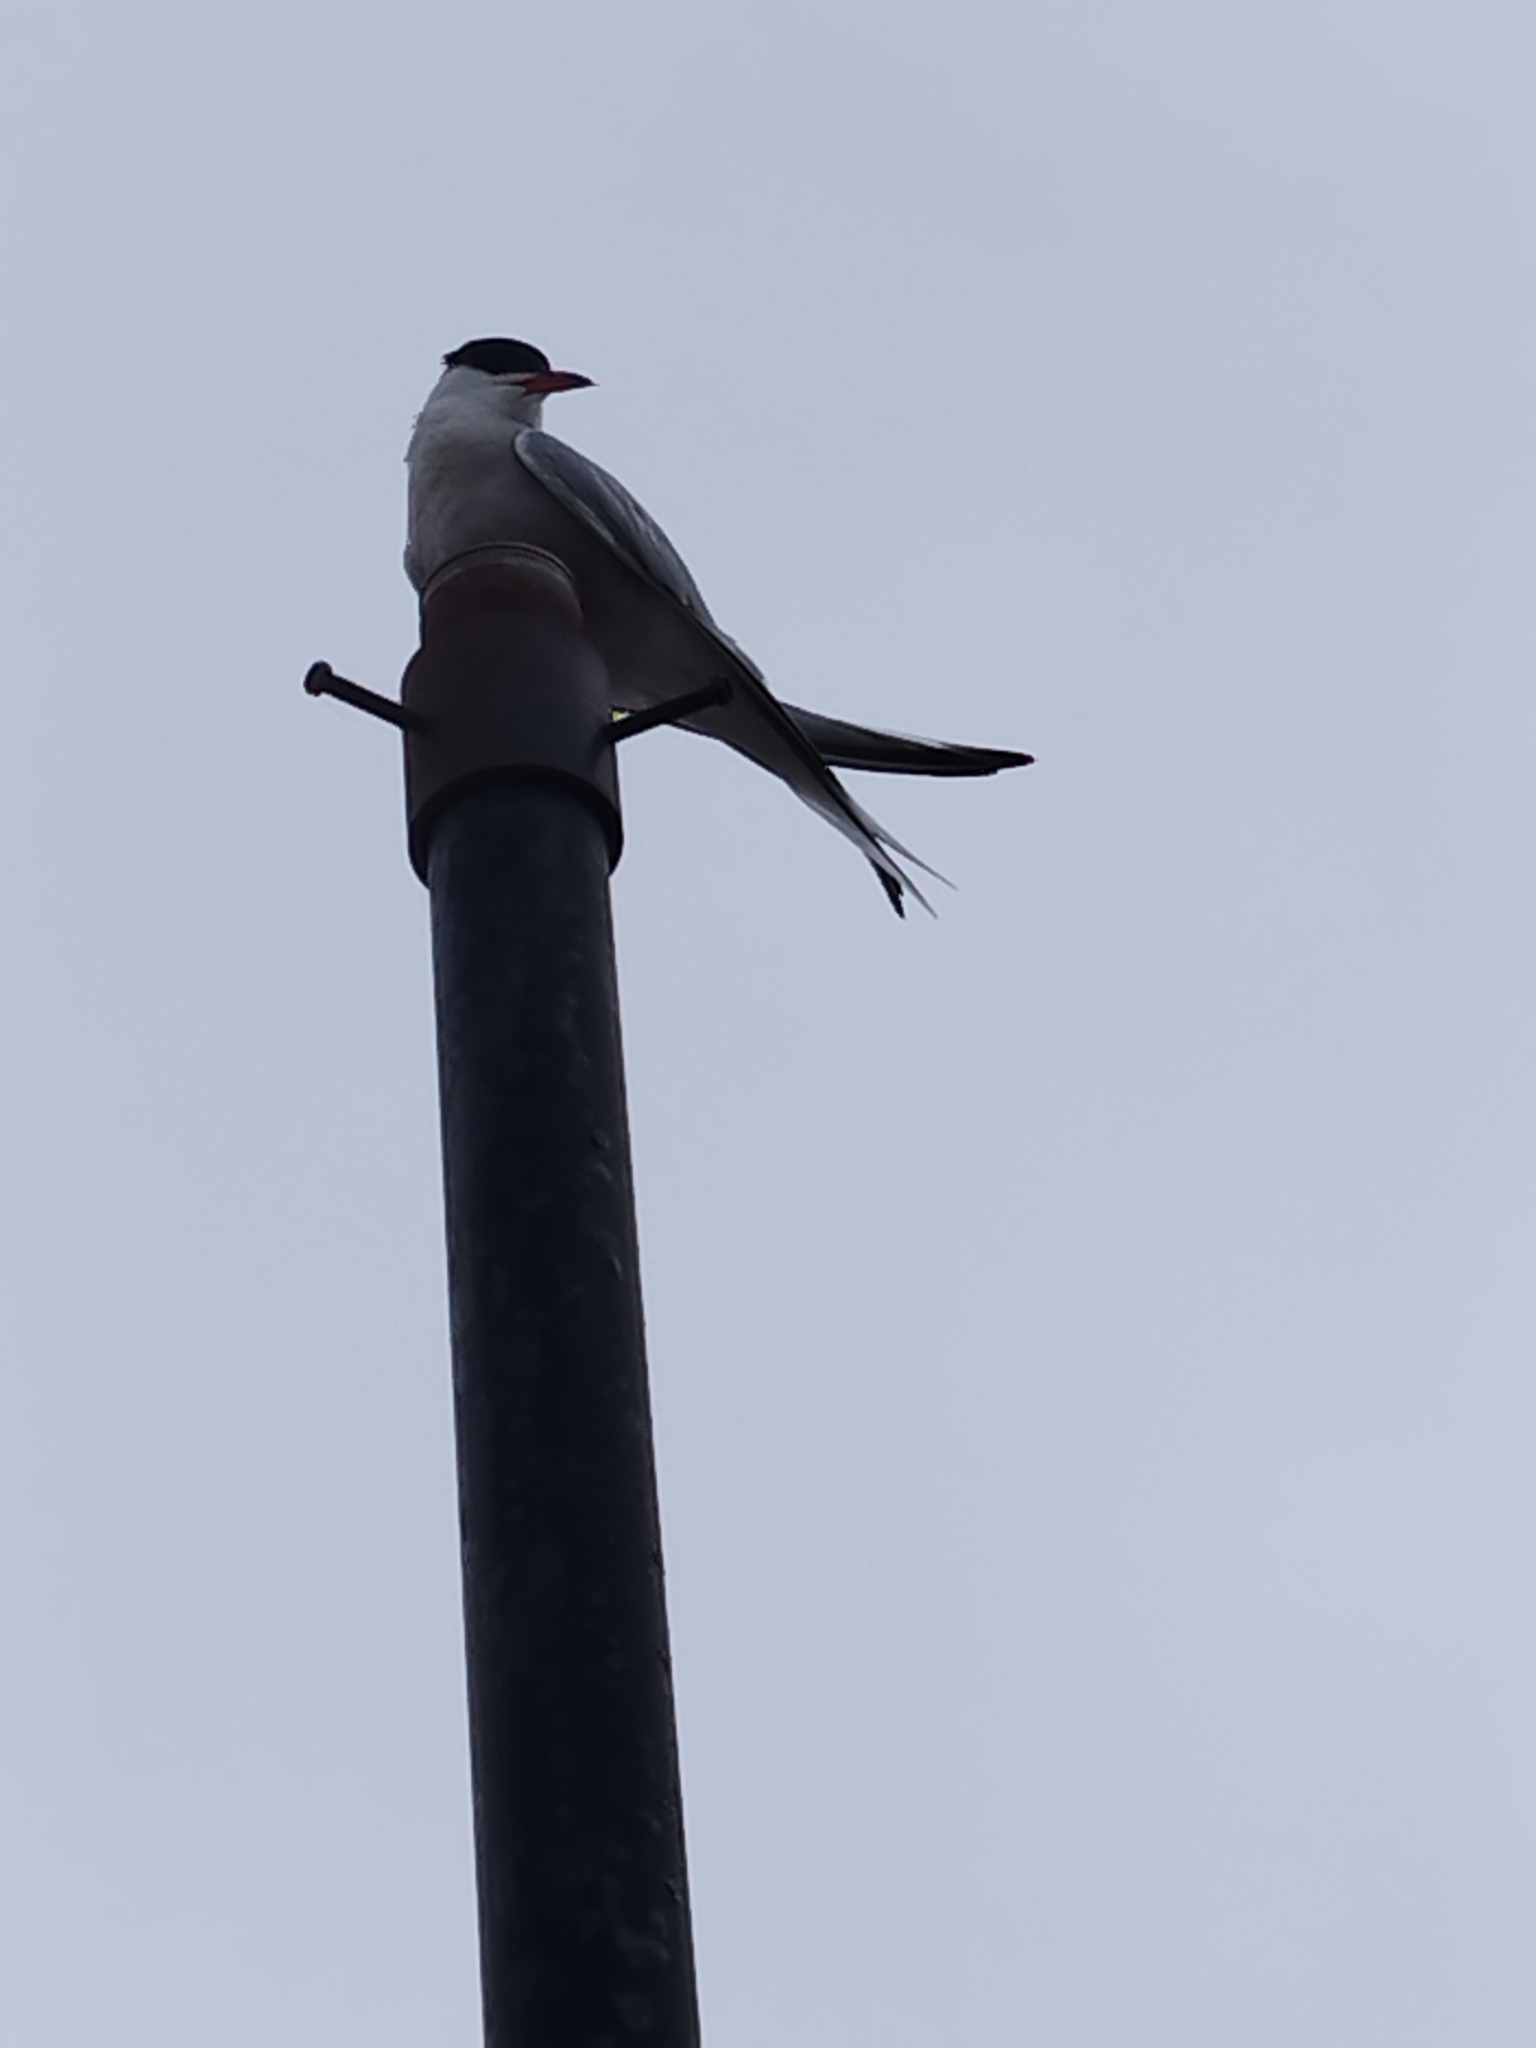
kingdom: Animalia
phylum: Chordata
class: Aves
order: Charadriiformes
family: Laridae
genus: Sterna
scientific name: Sterna hirundo
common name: Common tern
